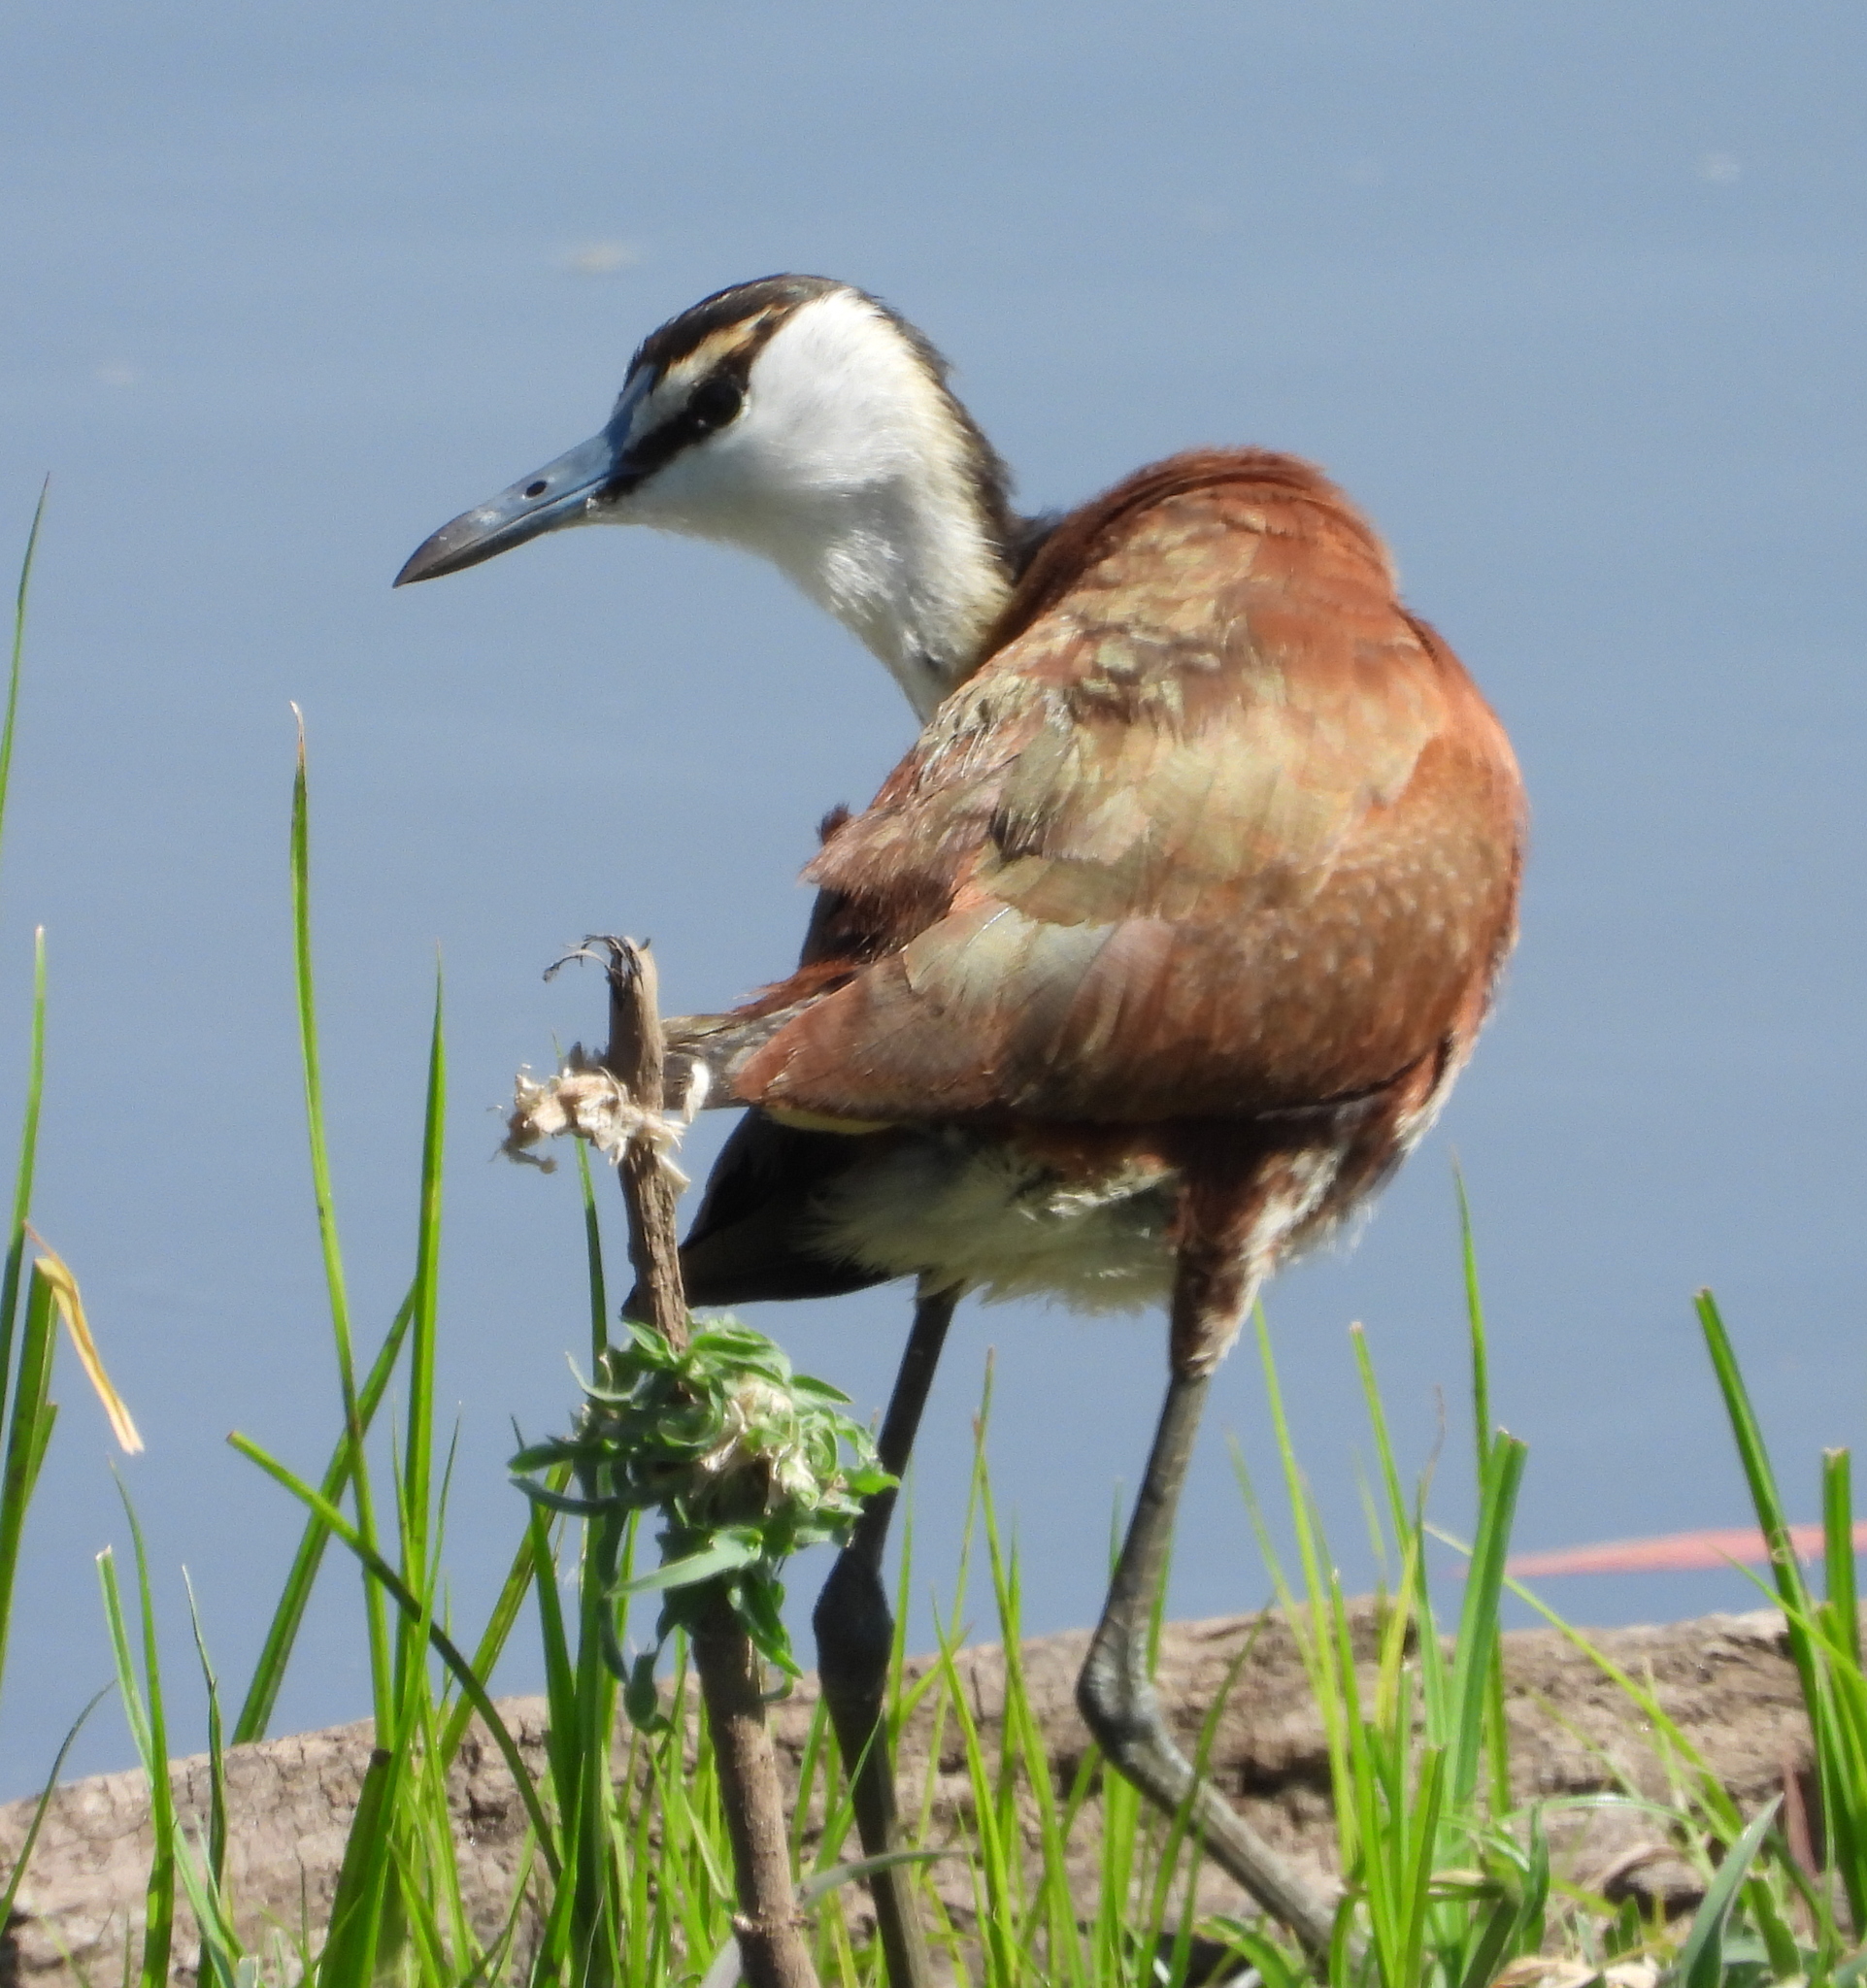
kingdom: Animalia
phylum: Chordata
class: Aves
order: Charadriiformes
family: Jacanidae
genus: Actophilornis
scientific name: Actophilornis africanus
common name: African jacana
